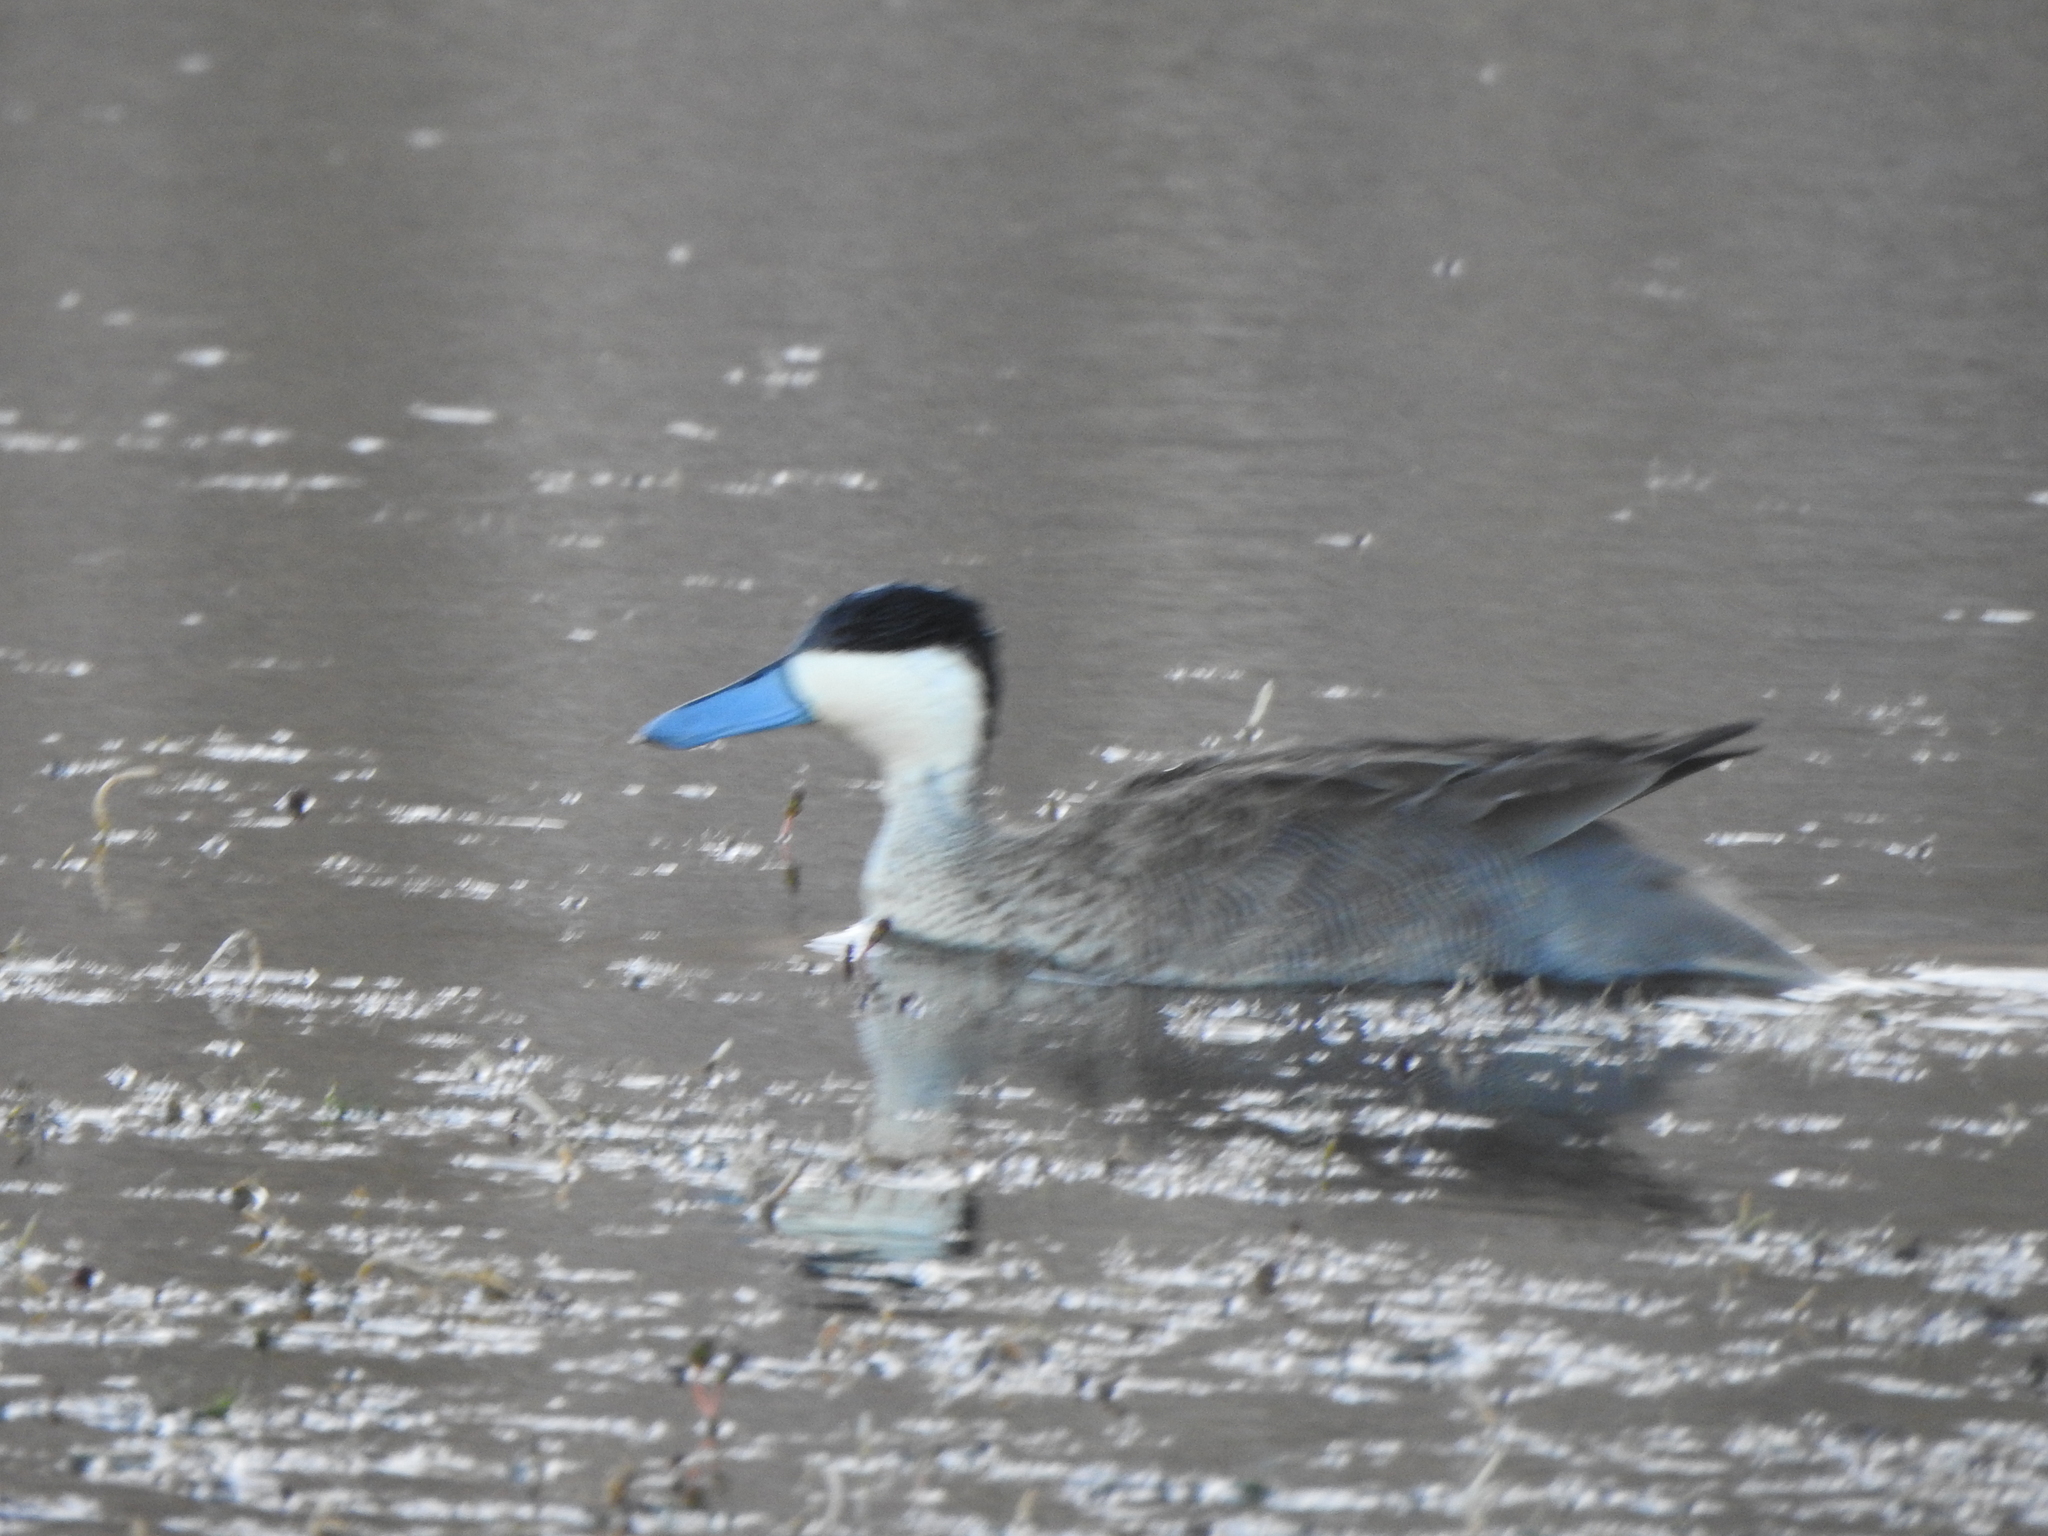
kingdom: Animalia
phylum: Chordata
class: Aves
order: Anseriformes
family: Anatidae
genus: Spatula
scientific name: Spatula puna
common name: Puna teal
